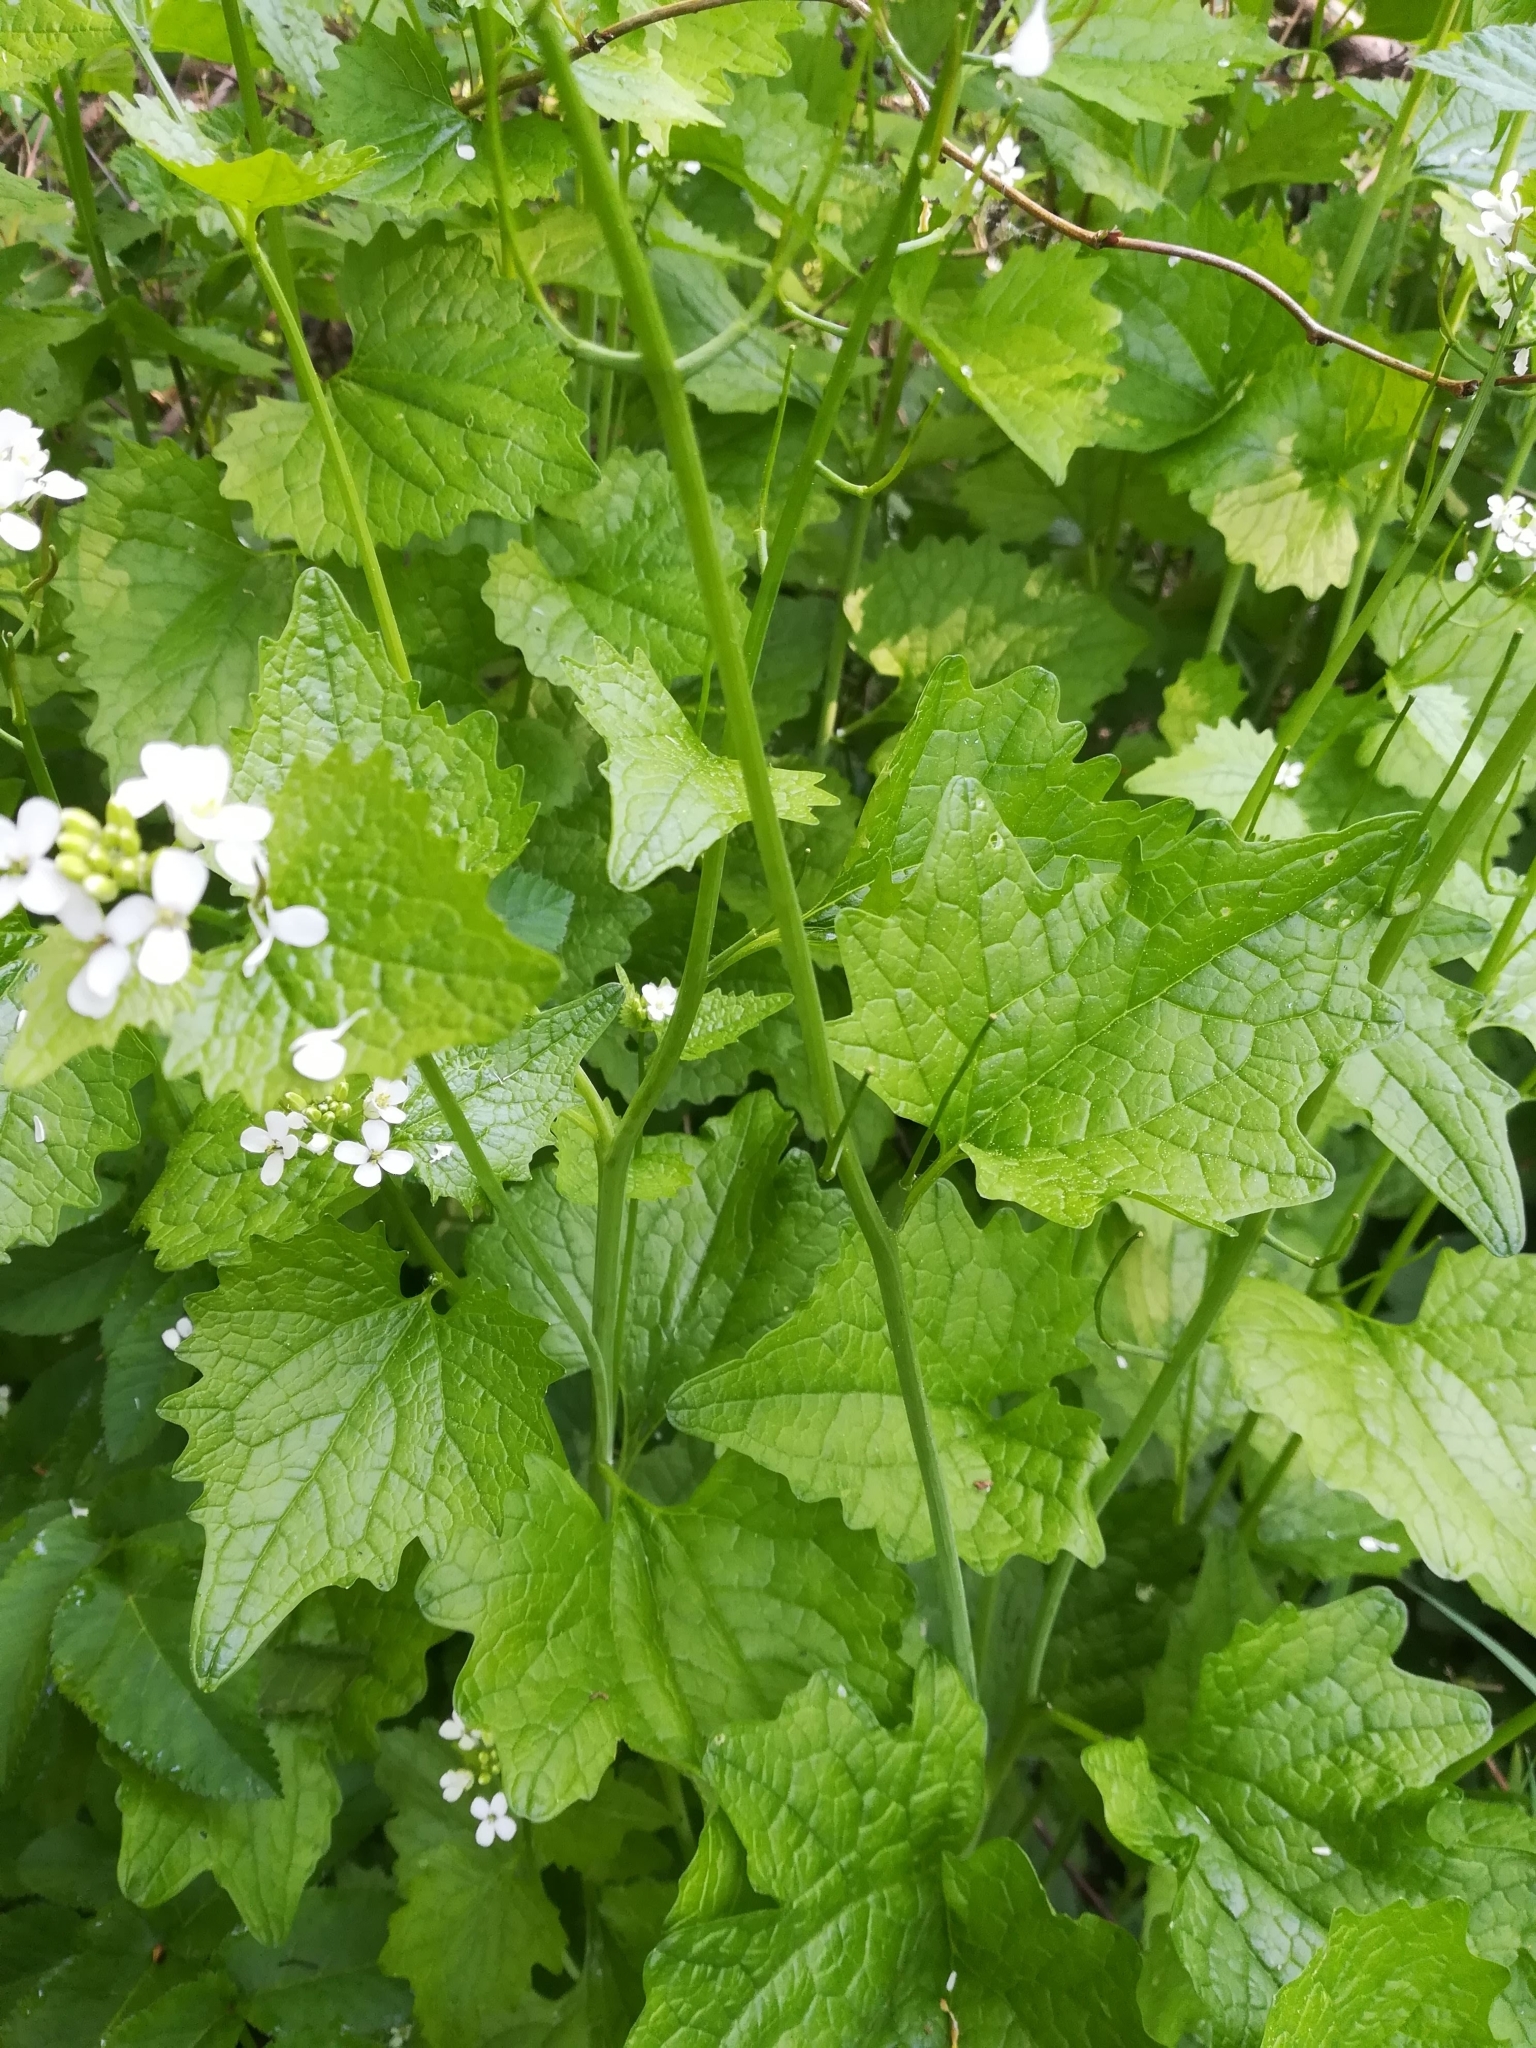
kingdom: Plantae
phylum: Tracheophyta
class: Magnoliopsida
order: Brassicales
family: Brassicaceae
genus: Alliaria
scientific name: Alliaria petiolata
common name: Garlic mustard
